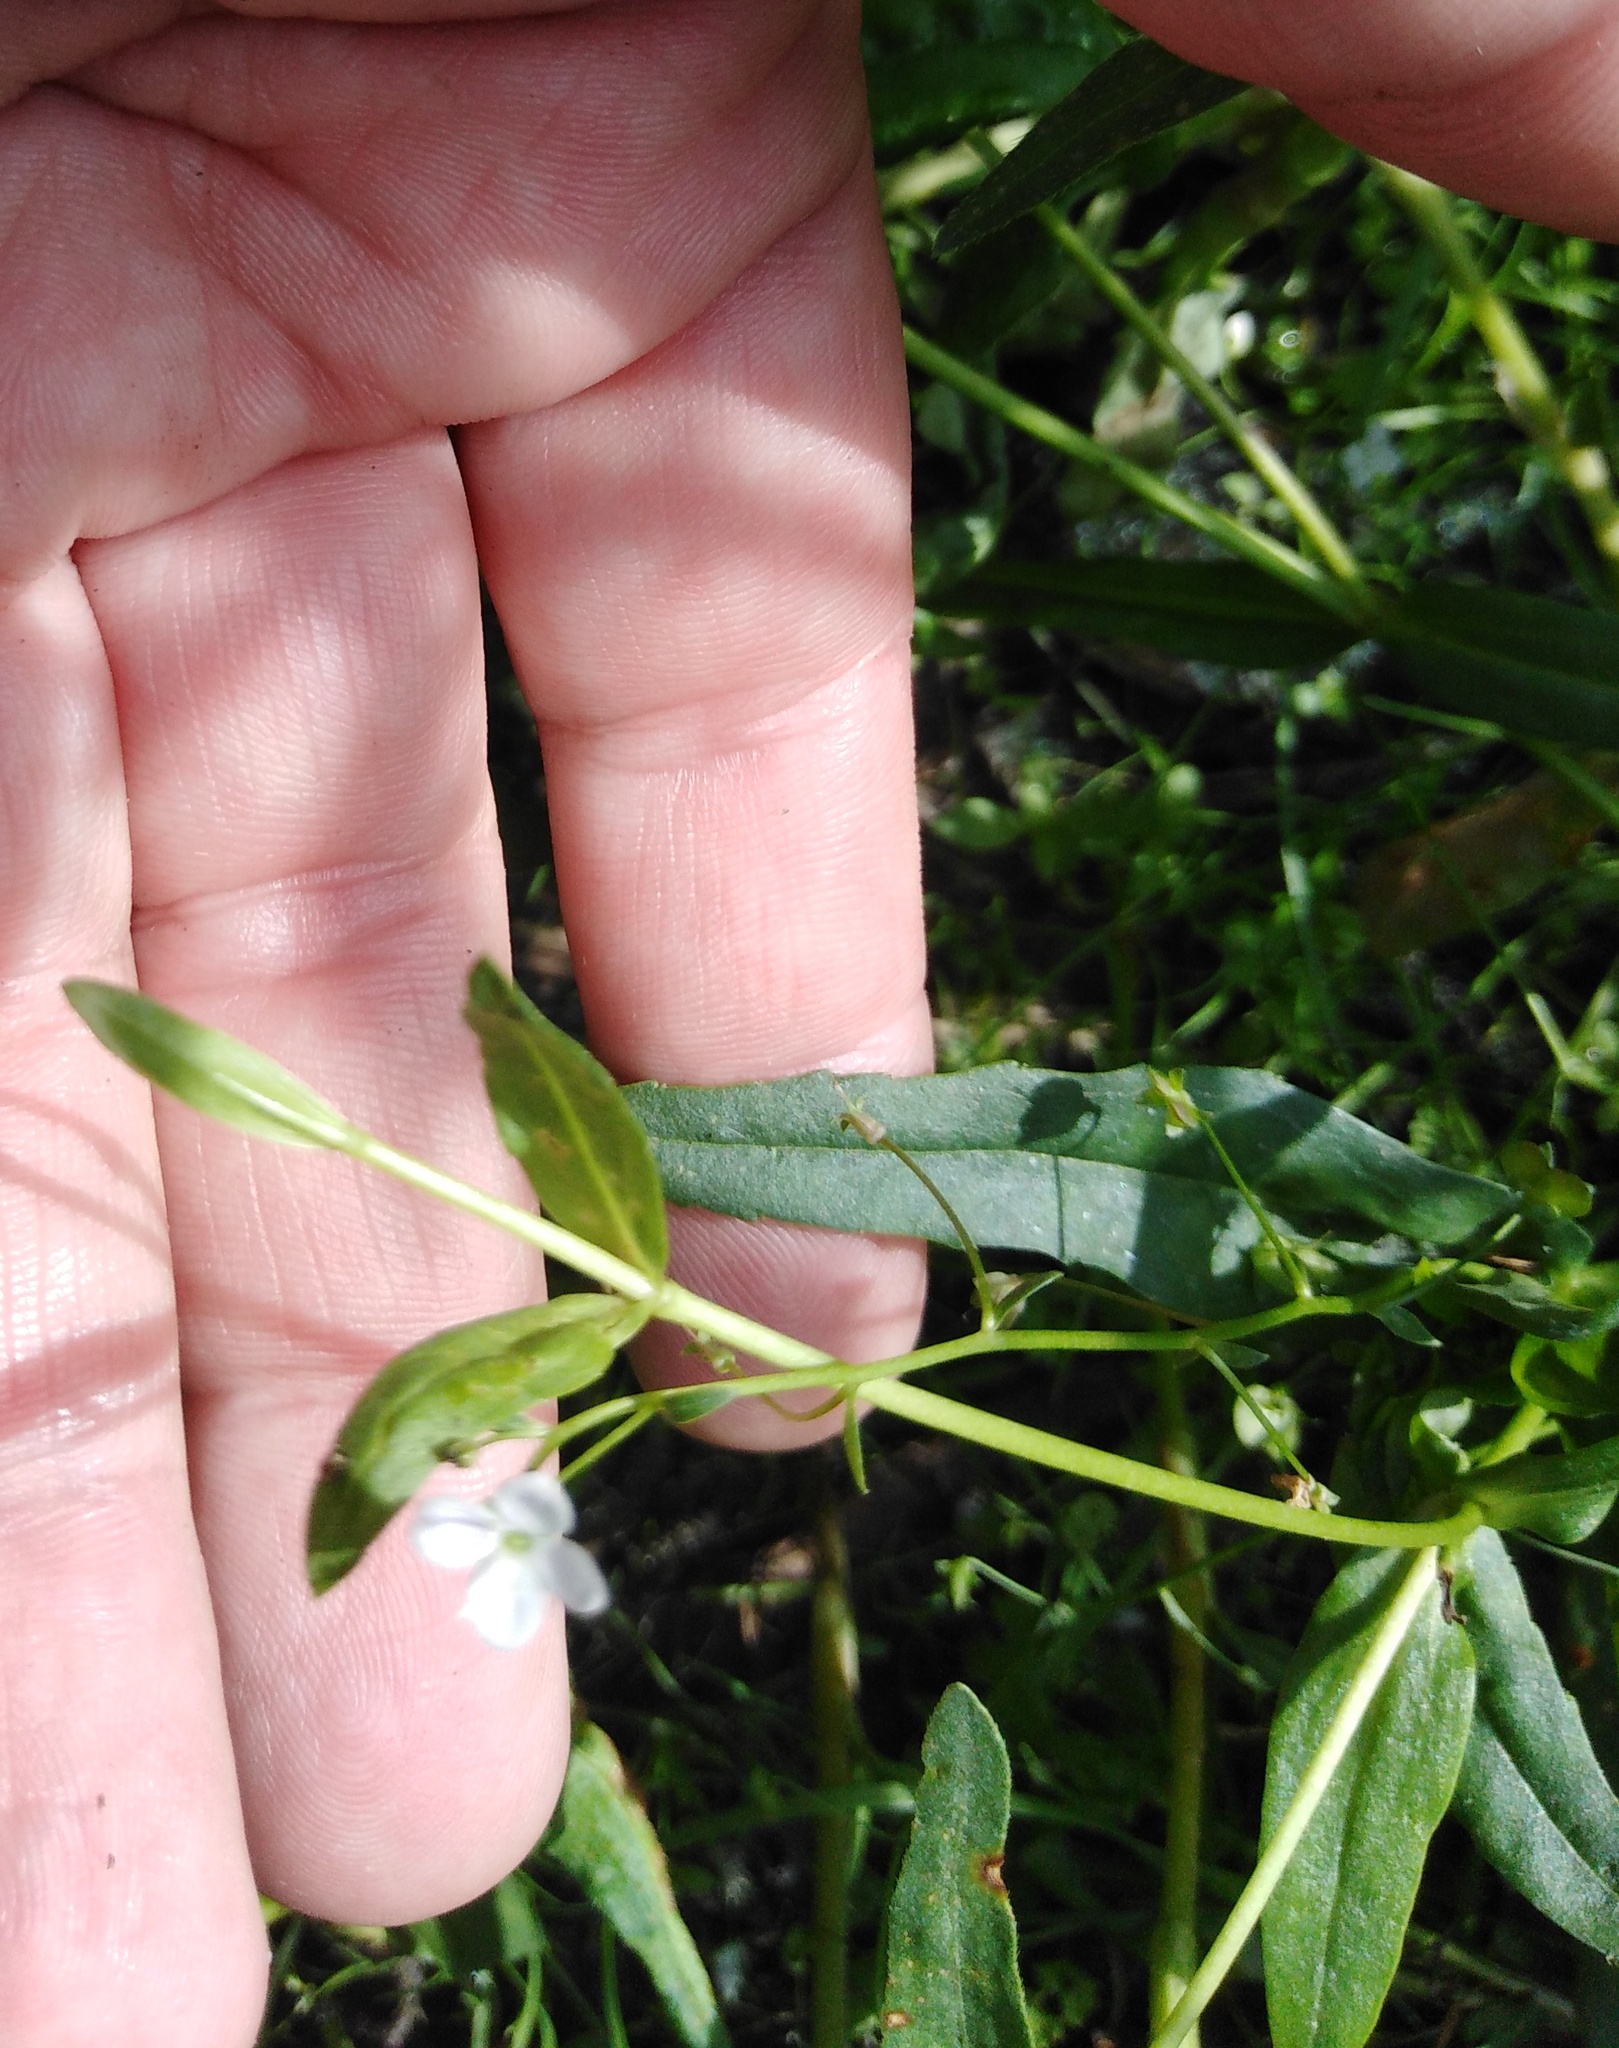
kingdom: Plantae
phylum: Tracheophyta
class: Magnoliopsida
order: Lamiales
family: Plantaginaceae
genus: Veronica
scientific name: Veronica scutellata
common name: Marsh speedwell
